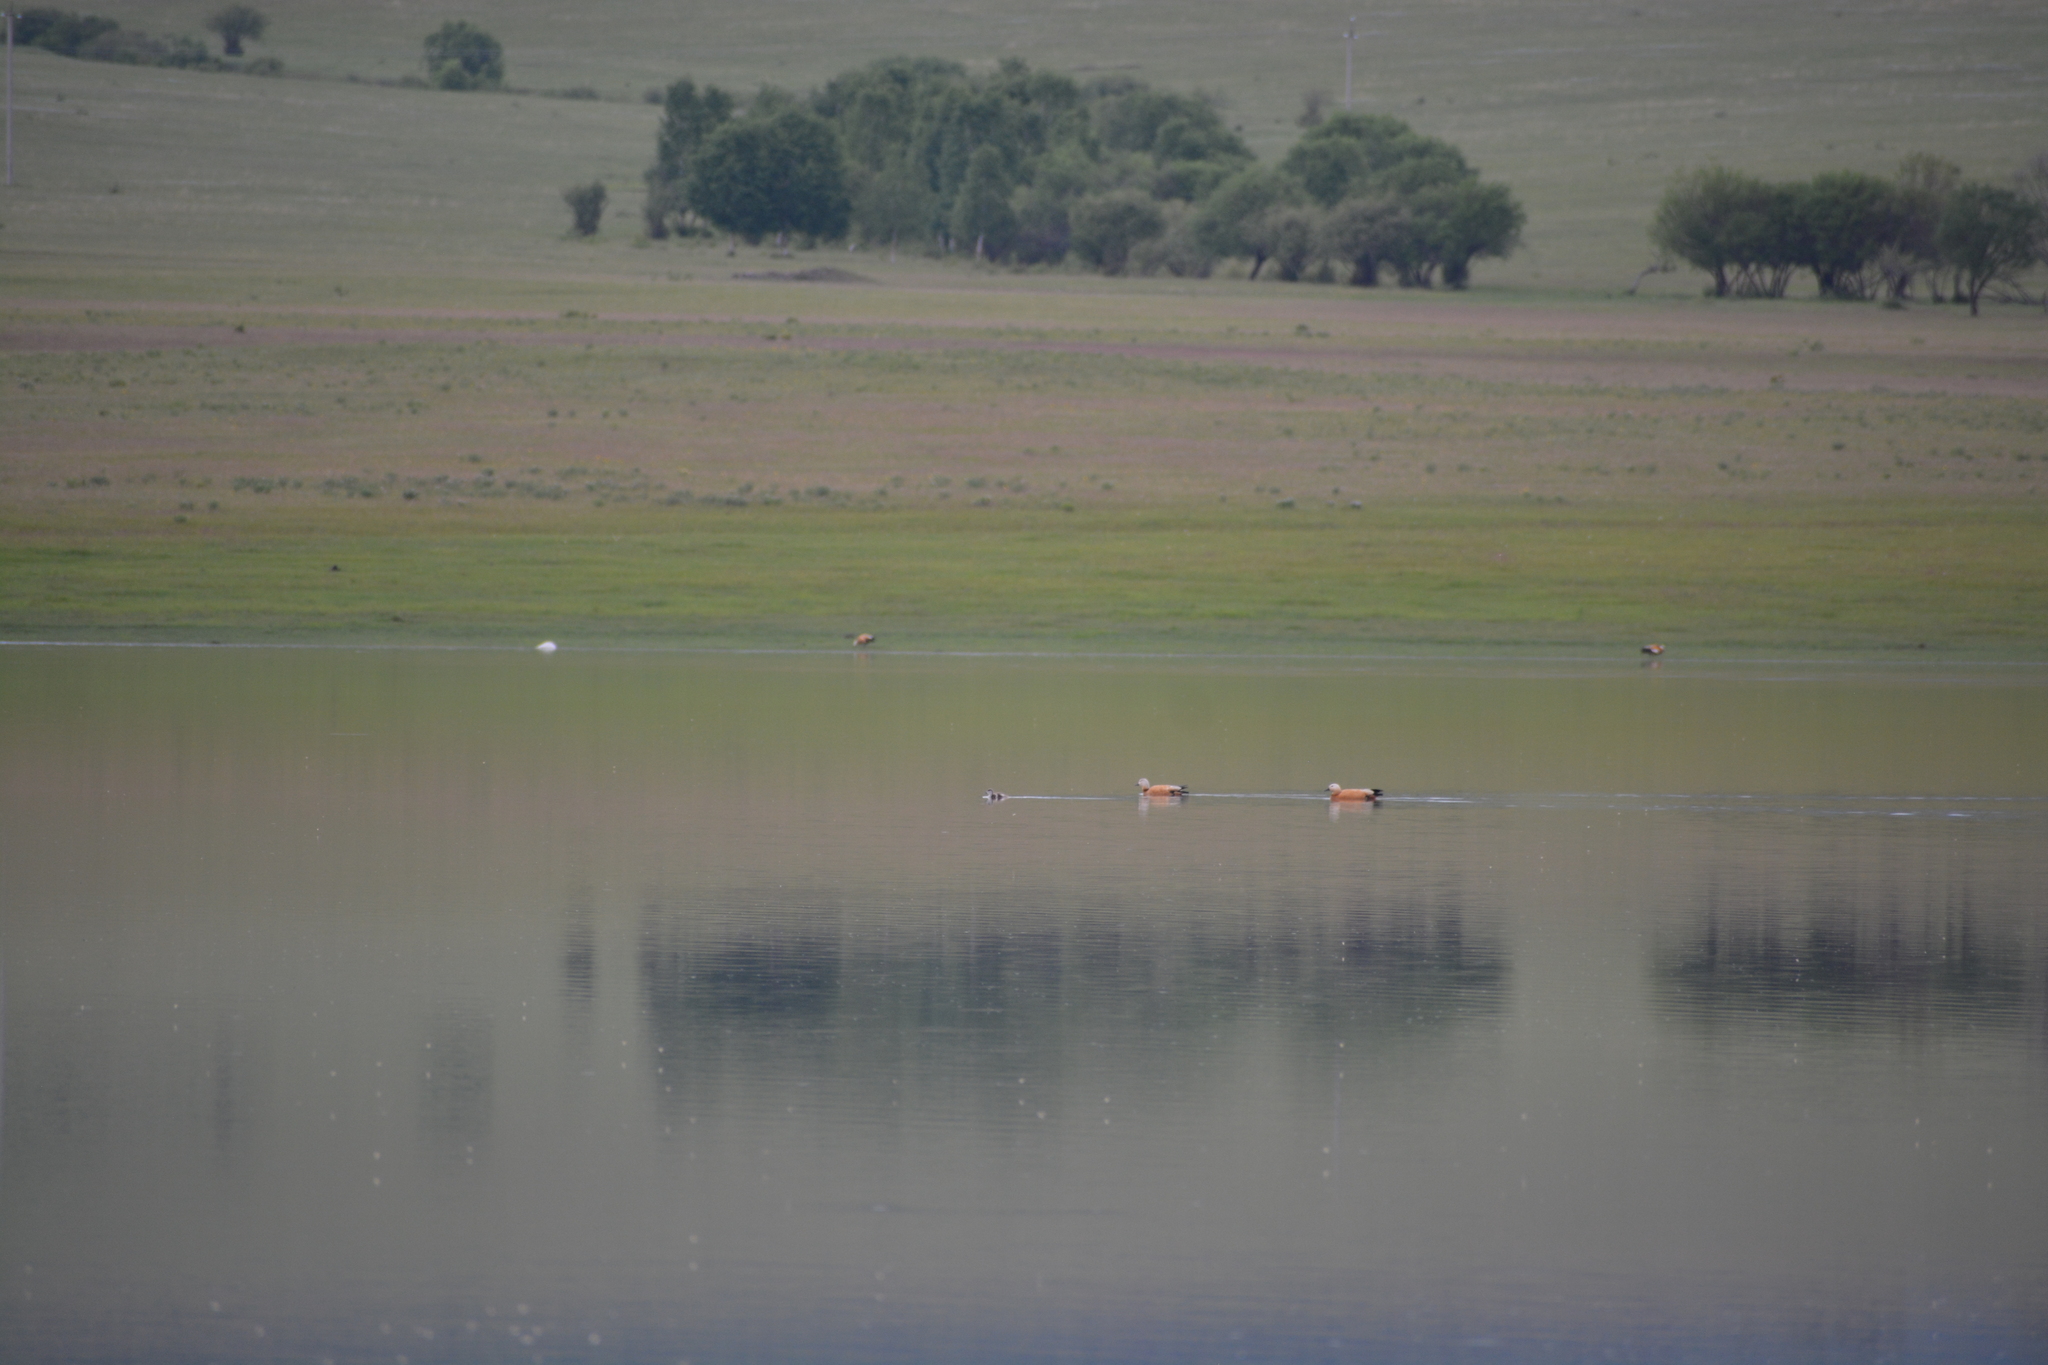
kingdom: Animalia
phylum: Chordata
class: Aves
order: Anseriformes
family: Anatidae
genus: Tadorna
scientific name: Tadorna ferruginea
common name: Ruddy shelduck
